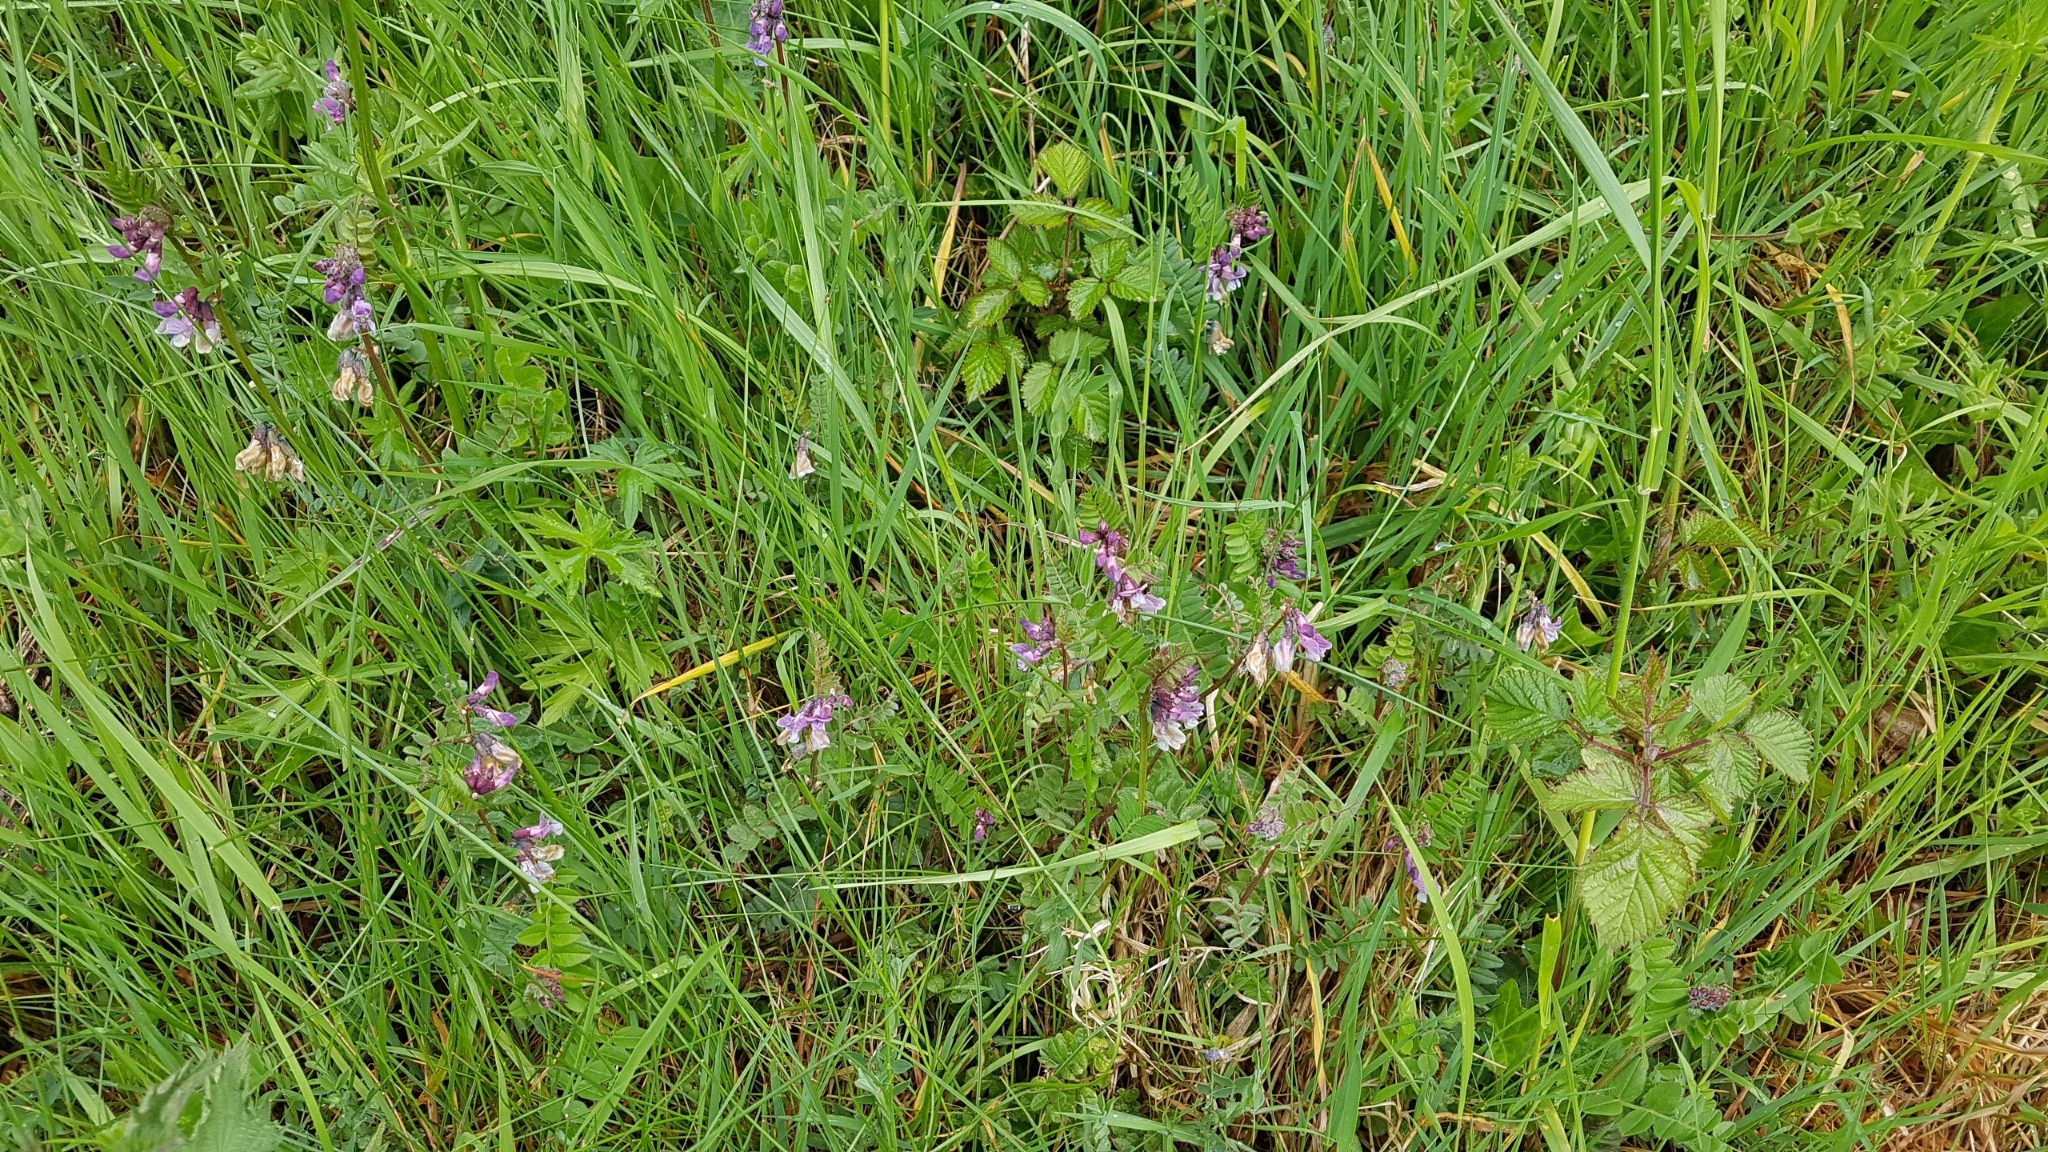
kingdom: Plantae
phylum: Tracheophyta
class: Magnoliopsida
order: Fabales
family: Fabaceae
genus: Vicia
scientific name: Vicia sepium
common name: Bush vetch
